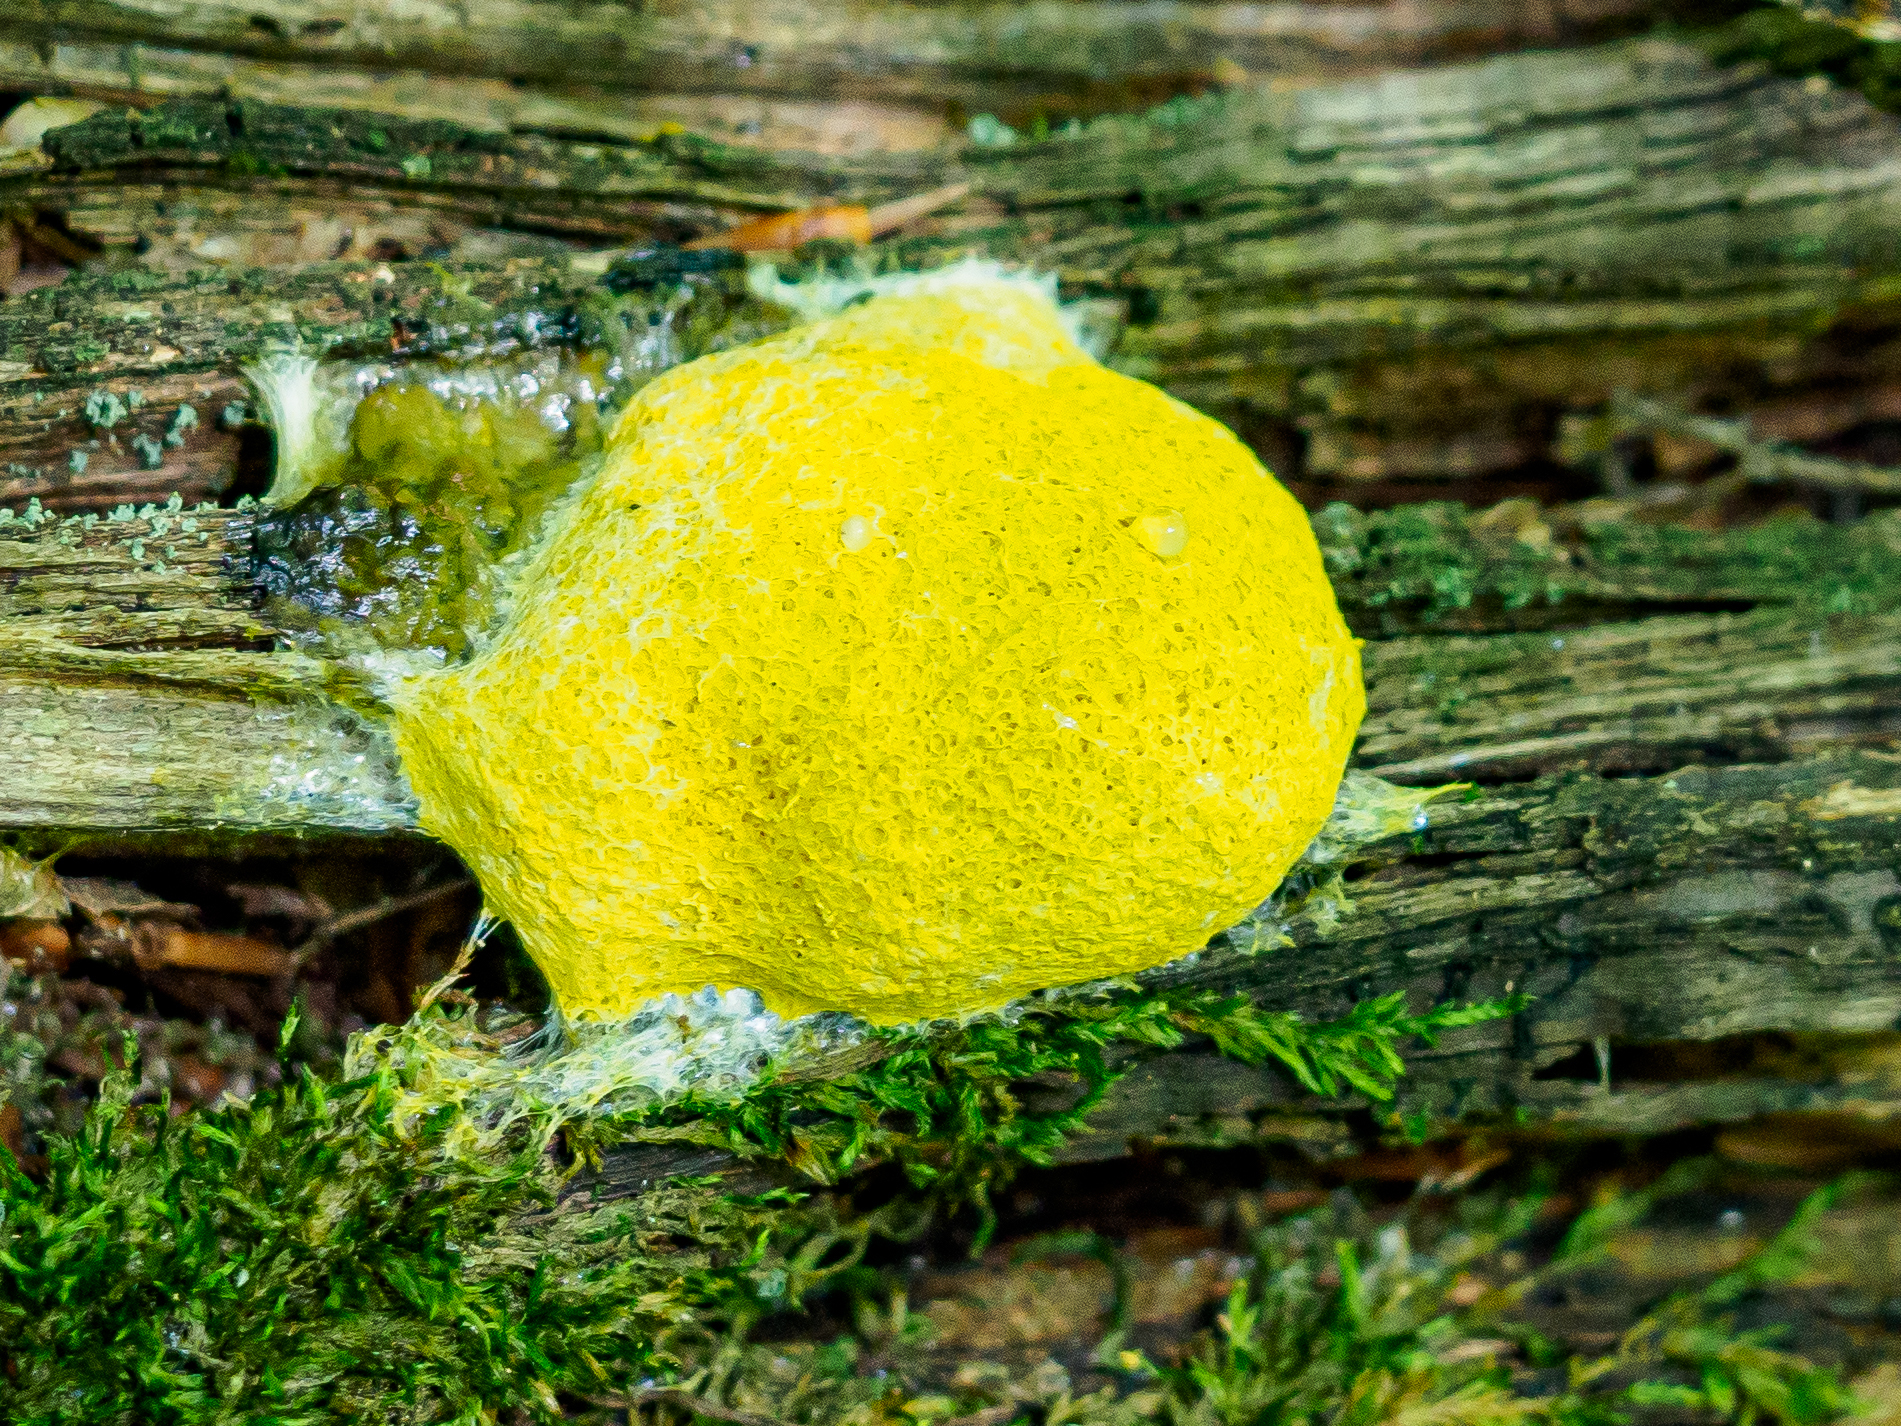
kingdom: Protozoa
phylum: Mycetozoa
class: Myxomycetes
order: Physarales
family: Physaraceae
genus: Fuligo
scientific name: Fuligo septica
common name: Dog vomit slime mold
